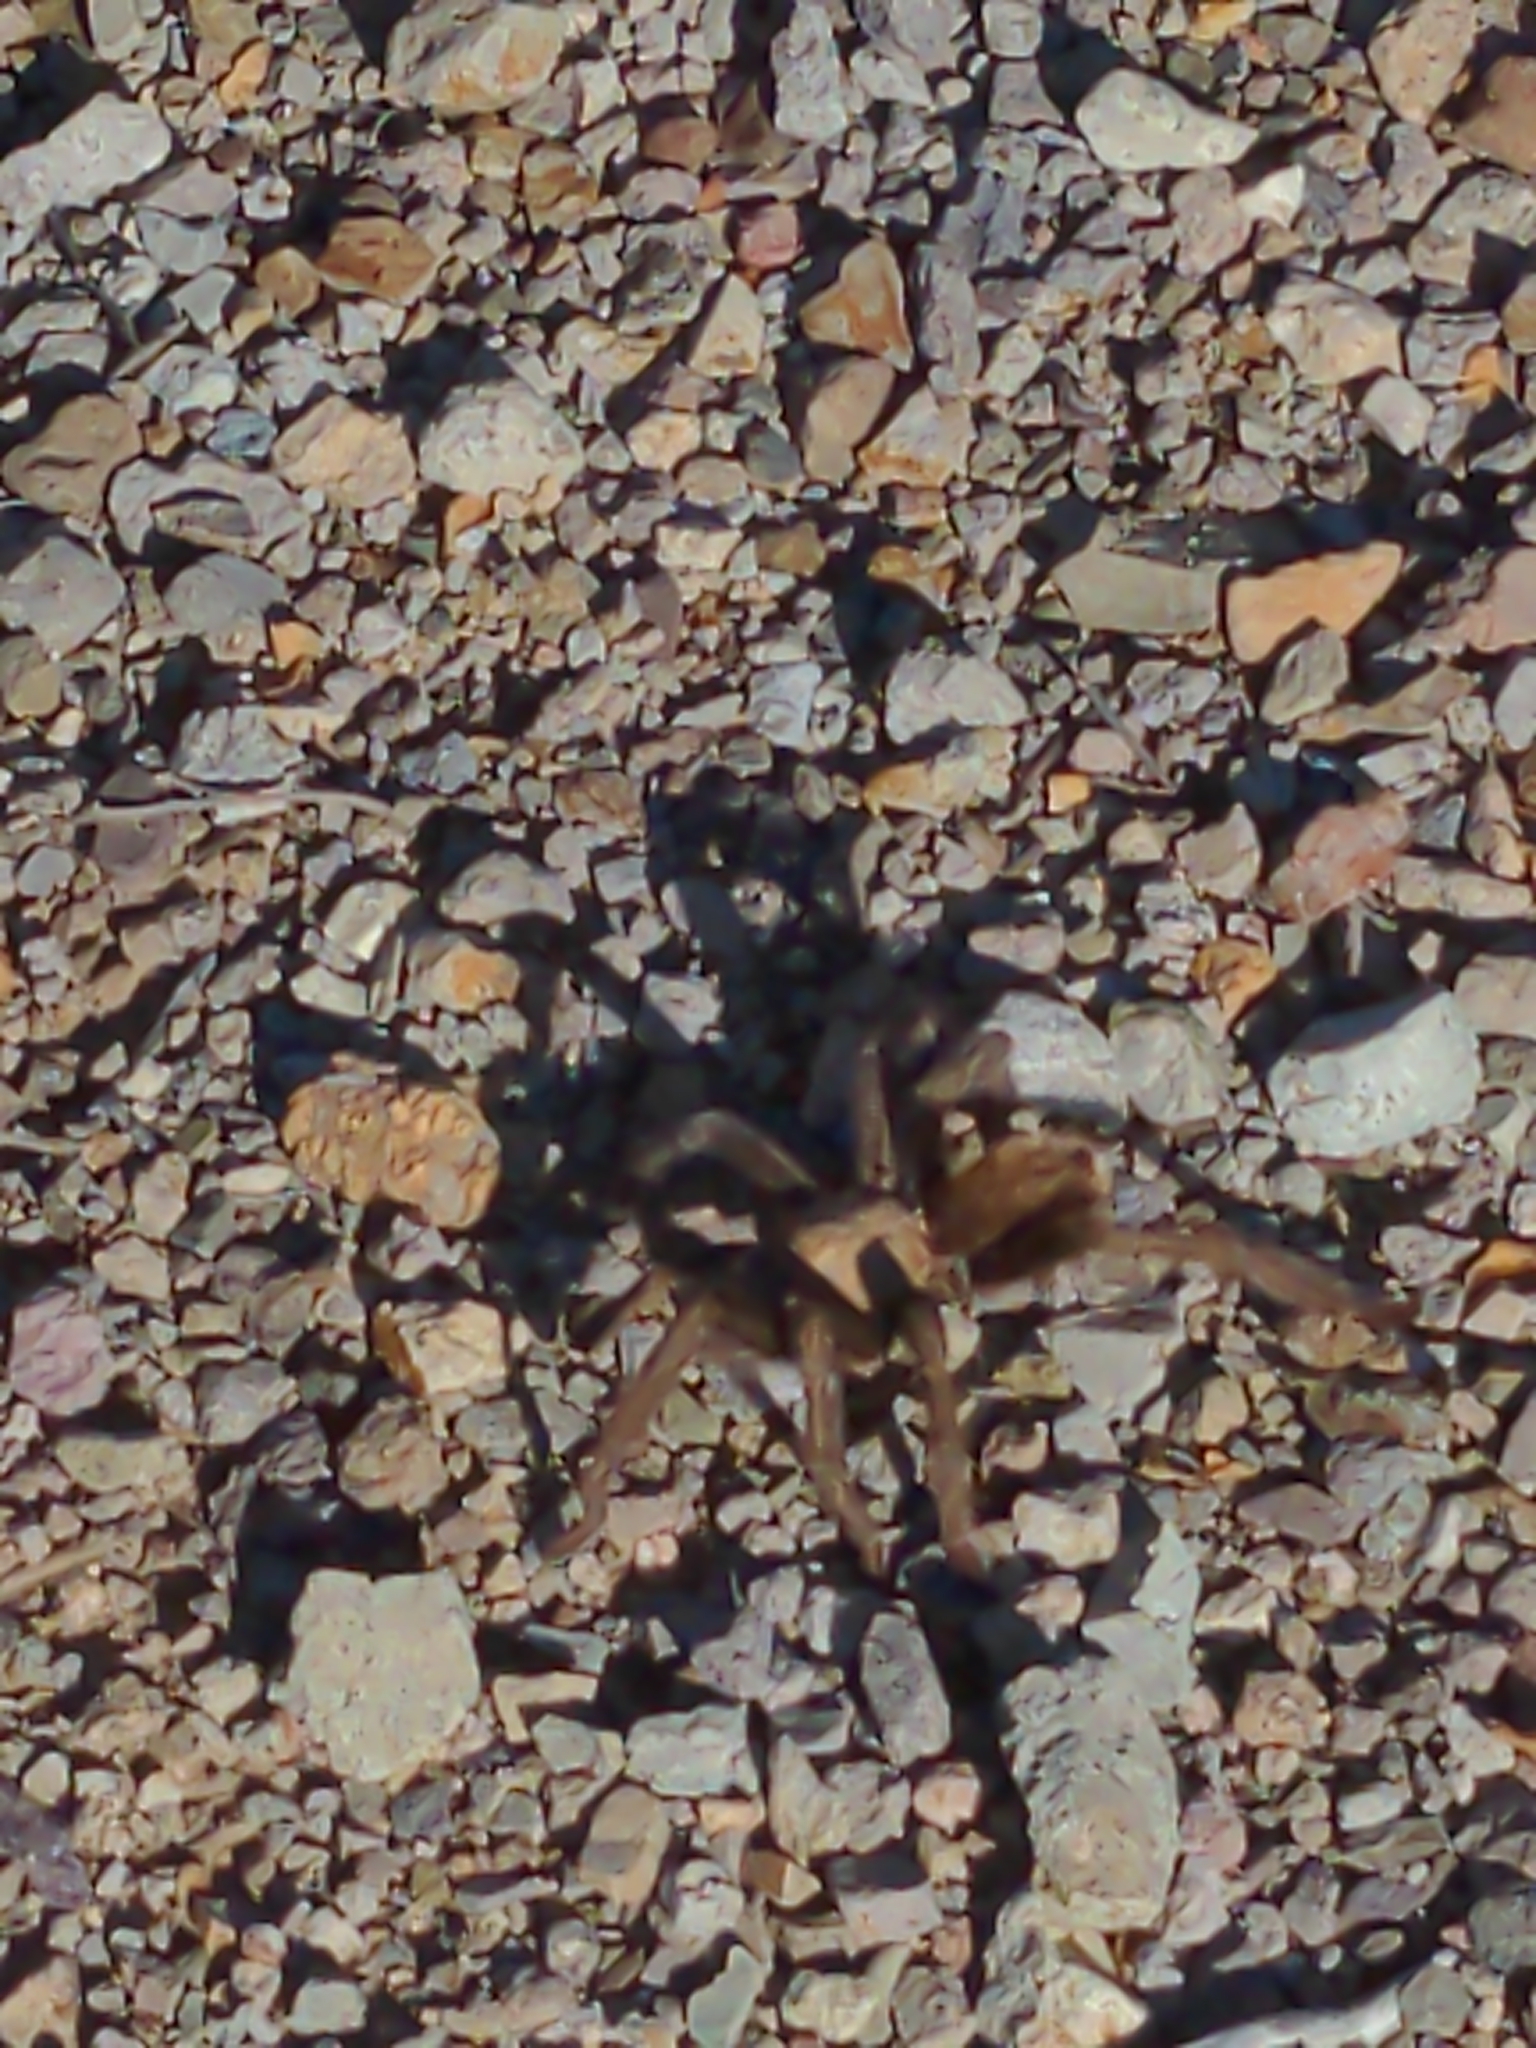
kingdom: Animalia
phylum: Arthropoda
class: Arachnida
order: Araneae
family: Theraphosidae
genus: Aphonopelma
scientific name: Aphonopelma chalcodes
